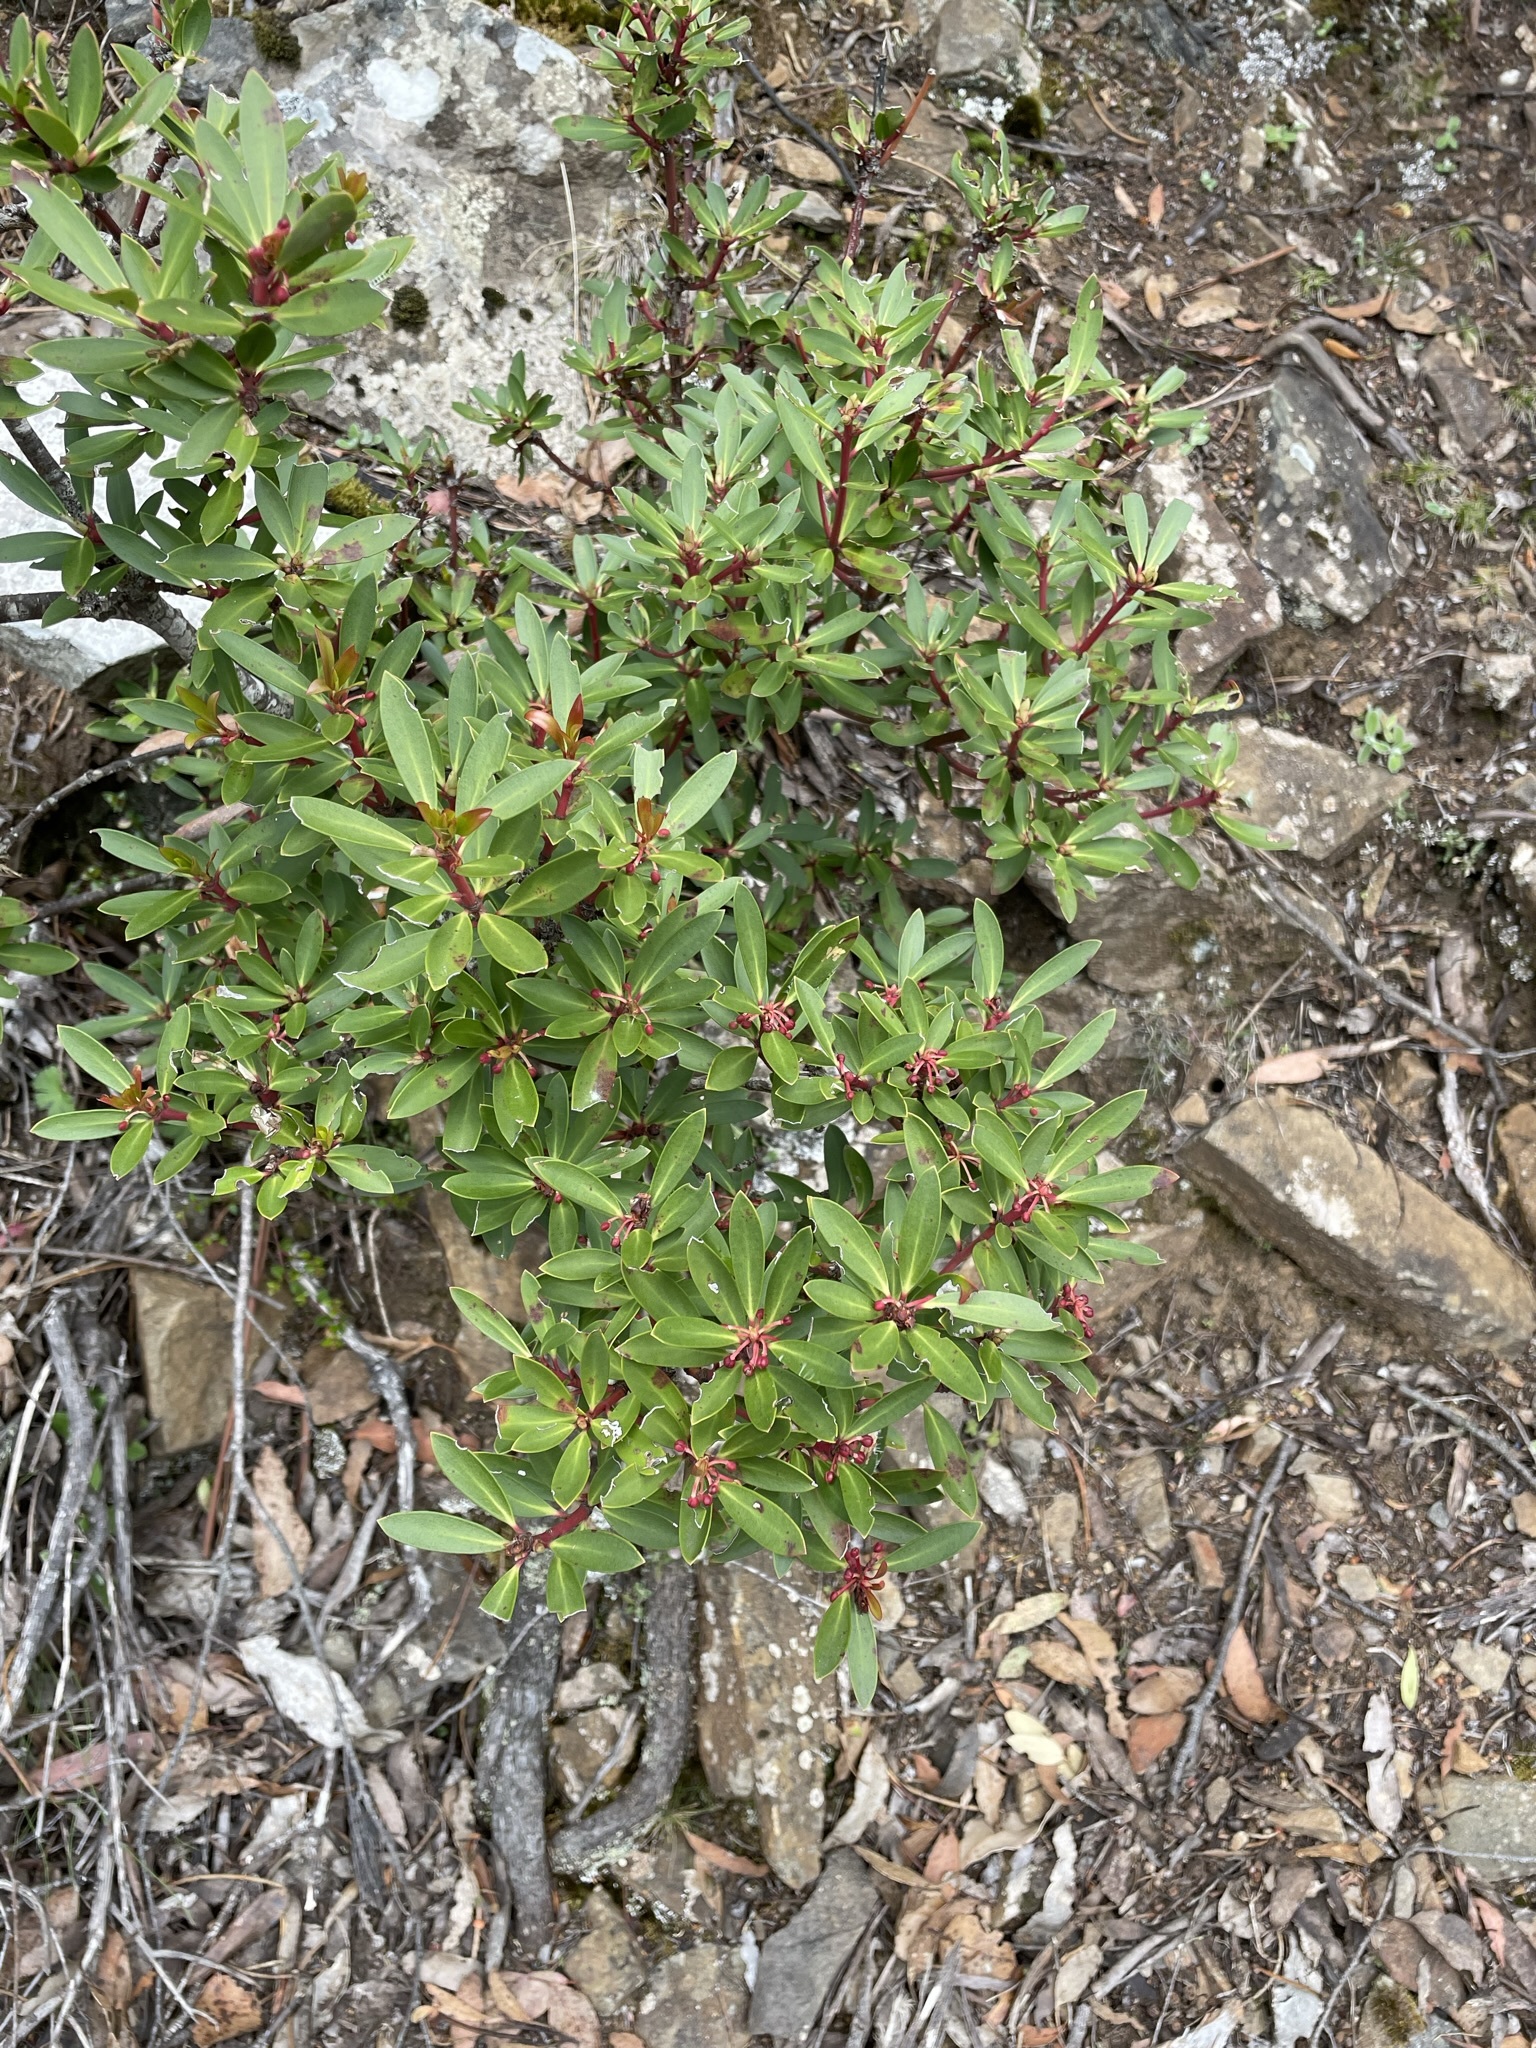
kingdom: Plantae
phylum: Tracheophyta
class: Magnoliopsida
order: Canellales
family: Winteraceae
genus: Drimys
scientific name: Drimys aromatica
